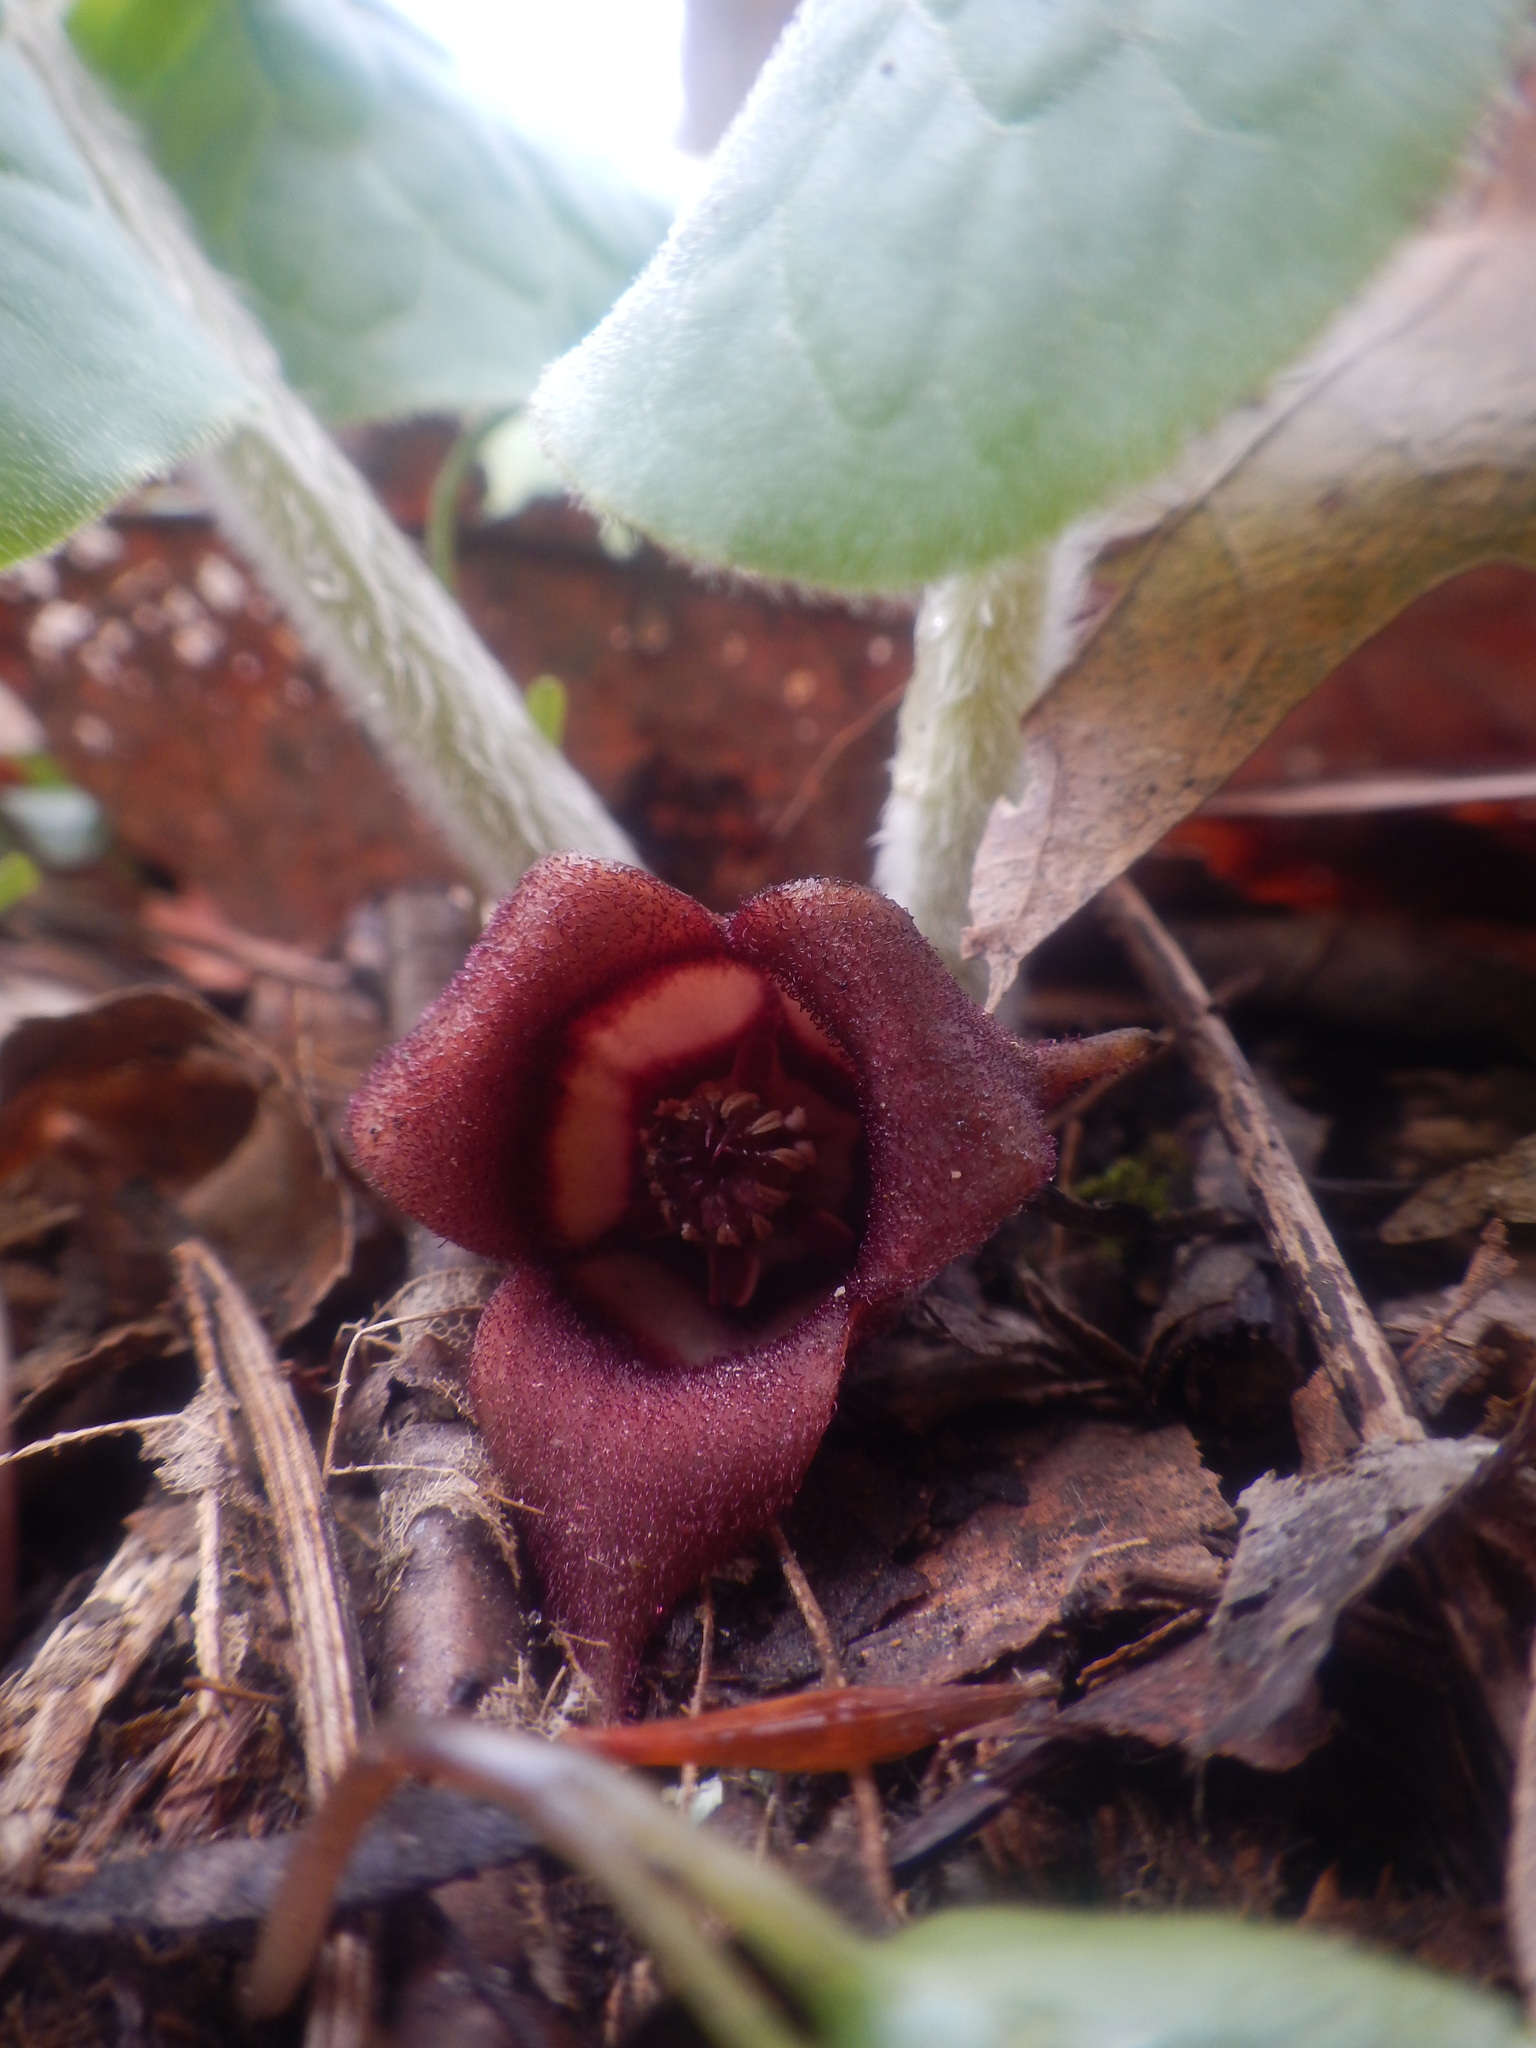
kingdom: Plantae
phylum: Tracheophyta
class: Magnoliopsida
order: Piperales
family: Aristolochiaceae
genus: Asarum
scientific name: Asarum canadense
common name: Wild ginger
